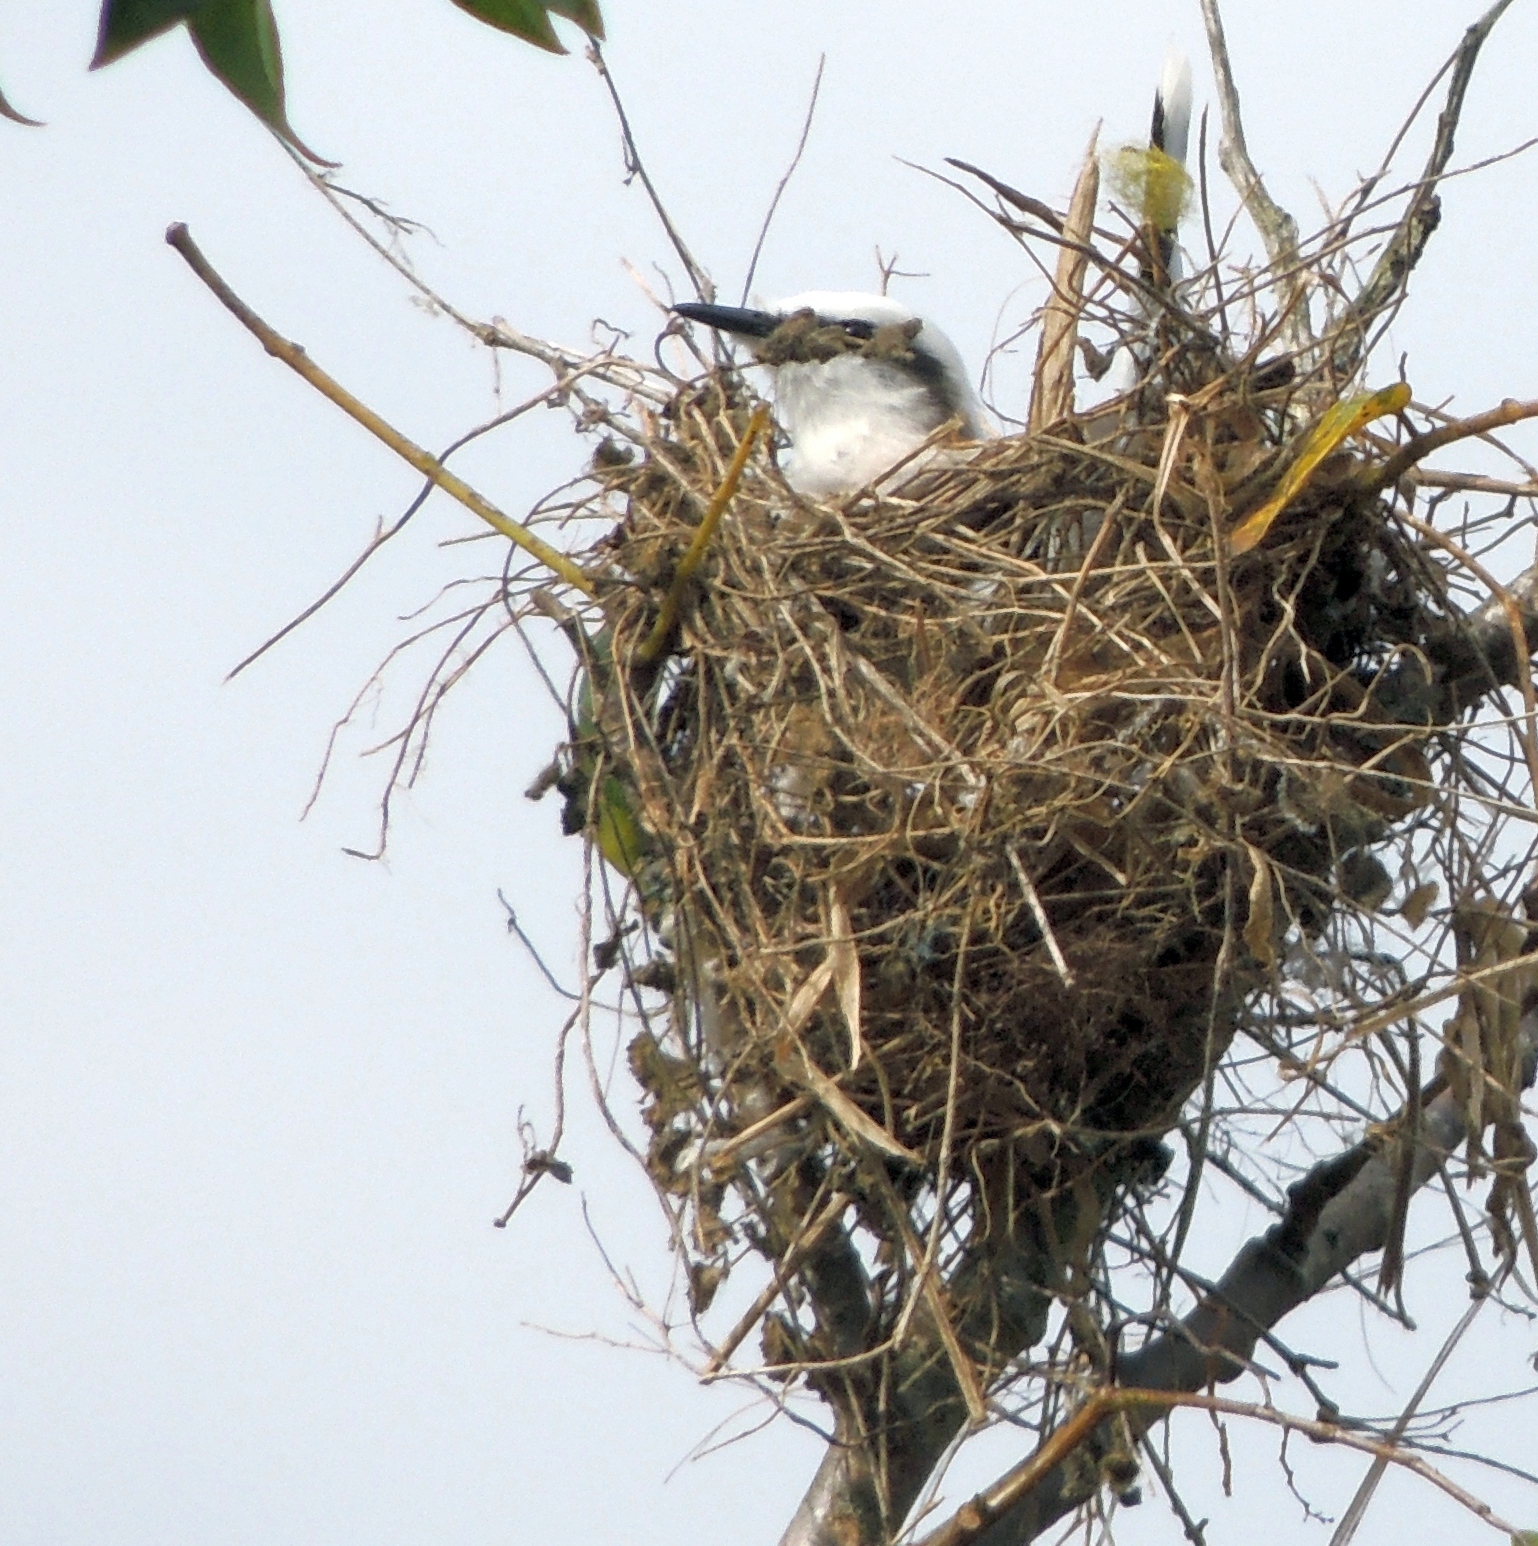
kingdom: Animalia
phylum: Chordata
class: Aves
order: Passeriformes
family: Tyrannidae
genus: Fluvicola
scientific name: Fluvicola nengeta
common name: Masked water tyrant
